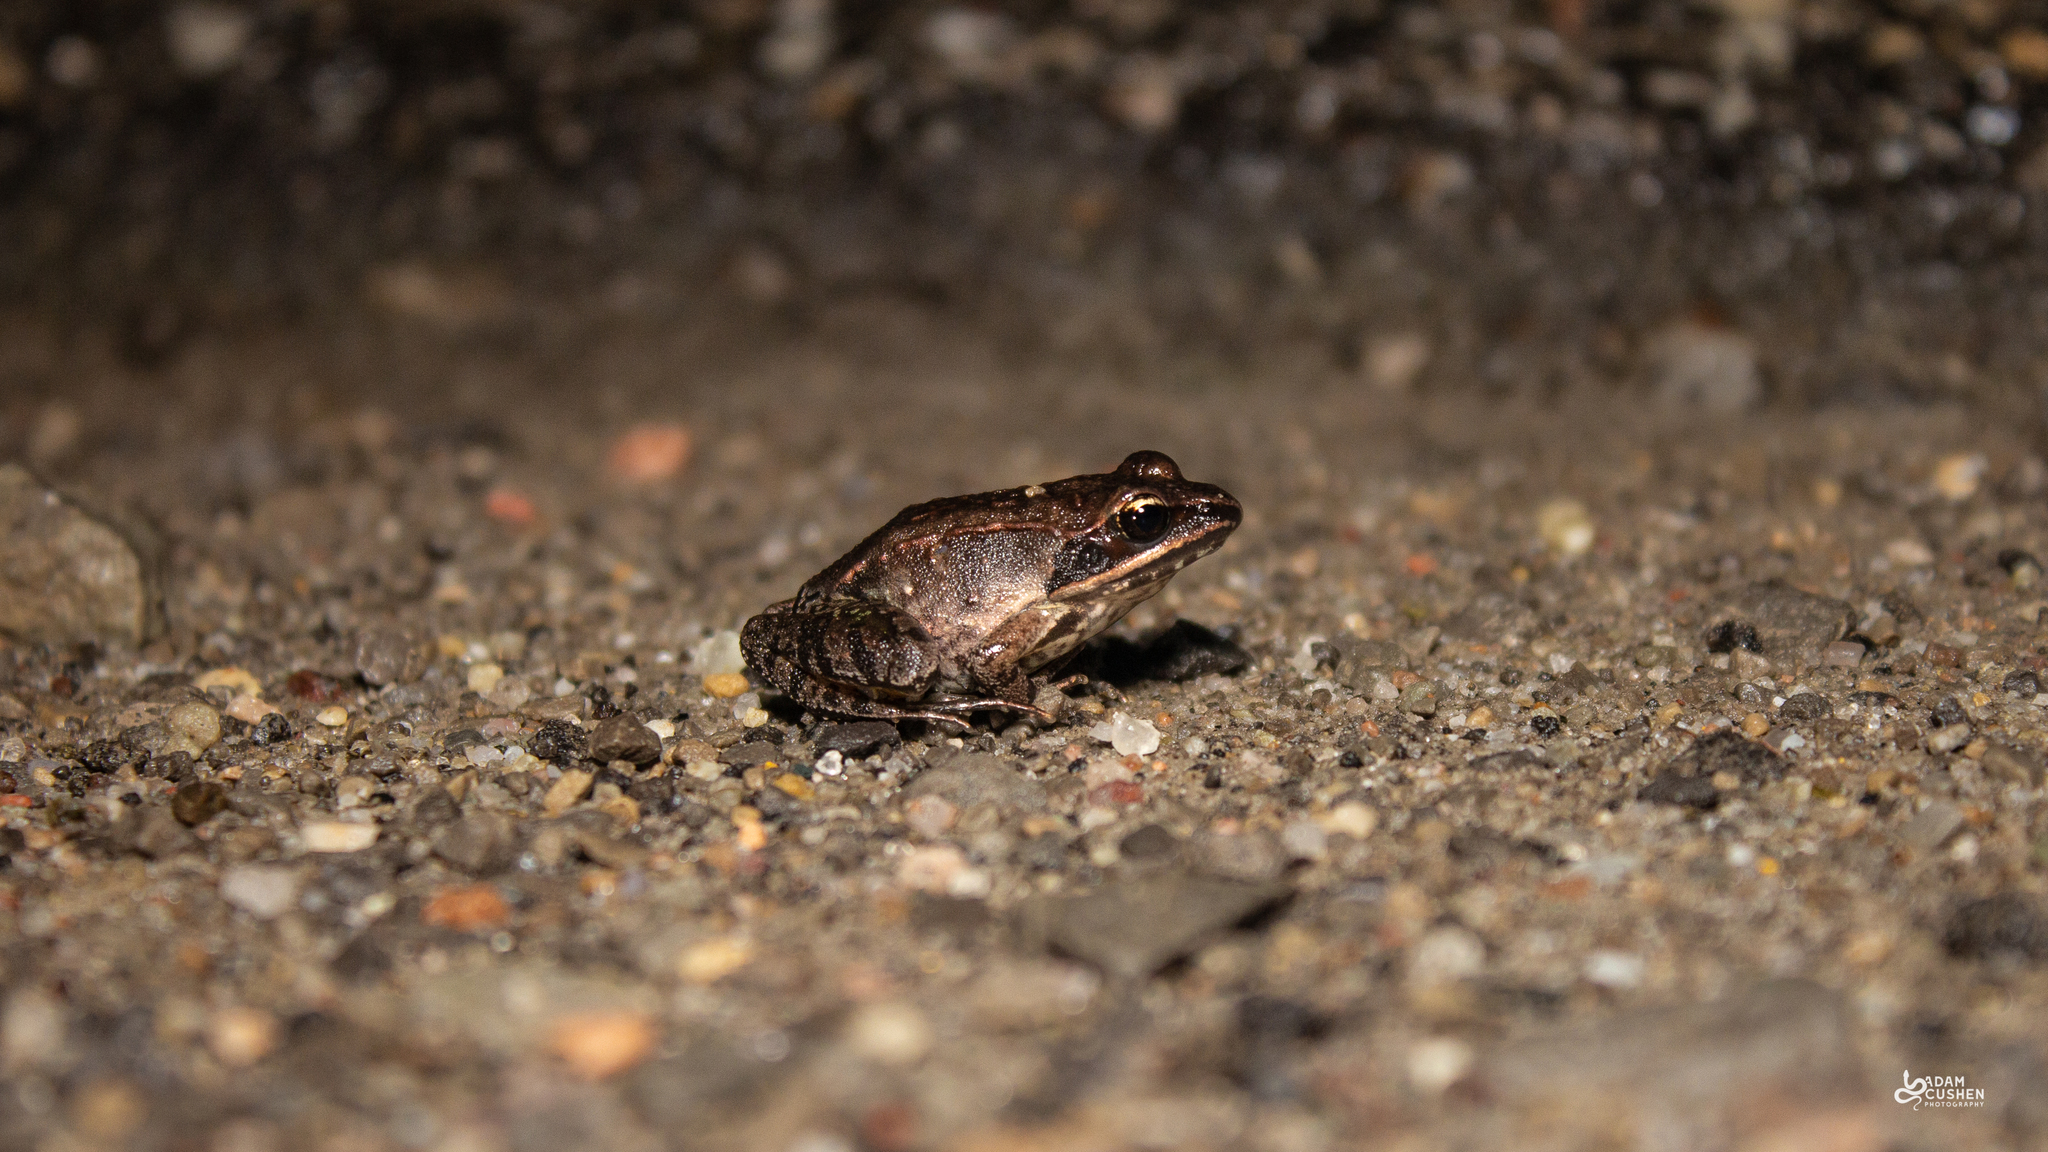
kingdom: Animalia
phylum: Chordata
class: Amphibia
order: Anura
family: Ranidae
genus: Lithobates
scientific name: Lithobates sylvaticus
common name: Wood frog
